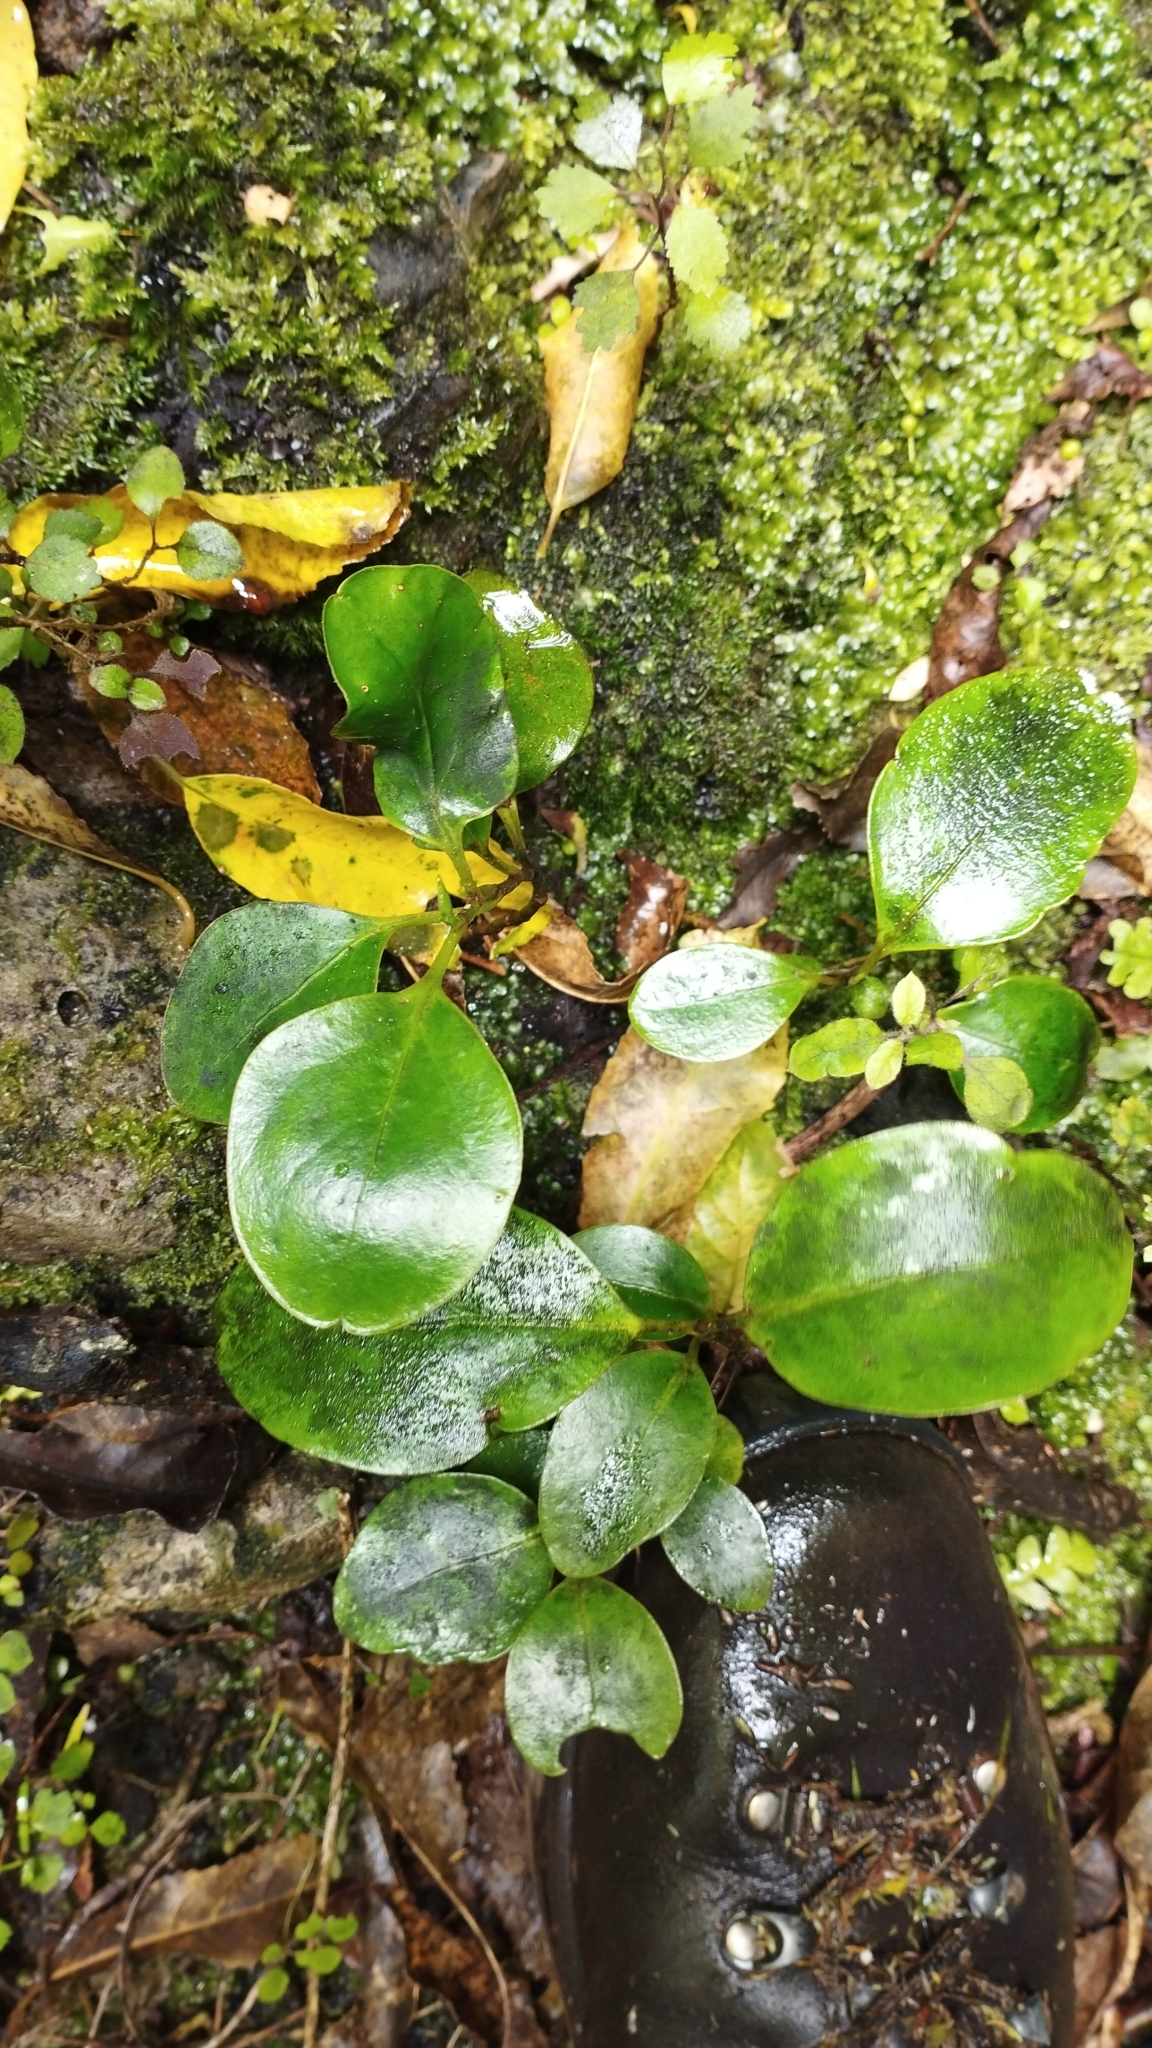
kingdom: Plantae
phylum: Tracheophyta
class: Magnoliopsida
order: Apiales
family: Griseliniaceae
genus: Griselinia
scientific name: Griselinia littoralis
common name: New zealand broadleaf
